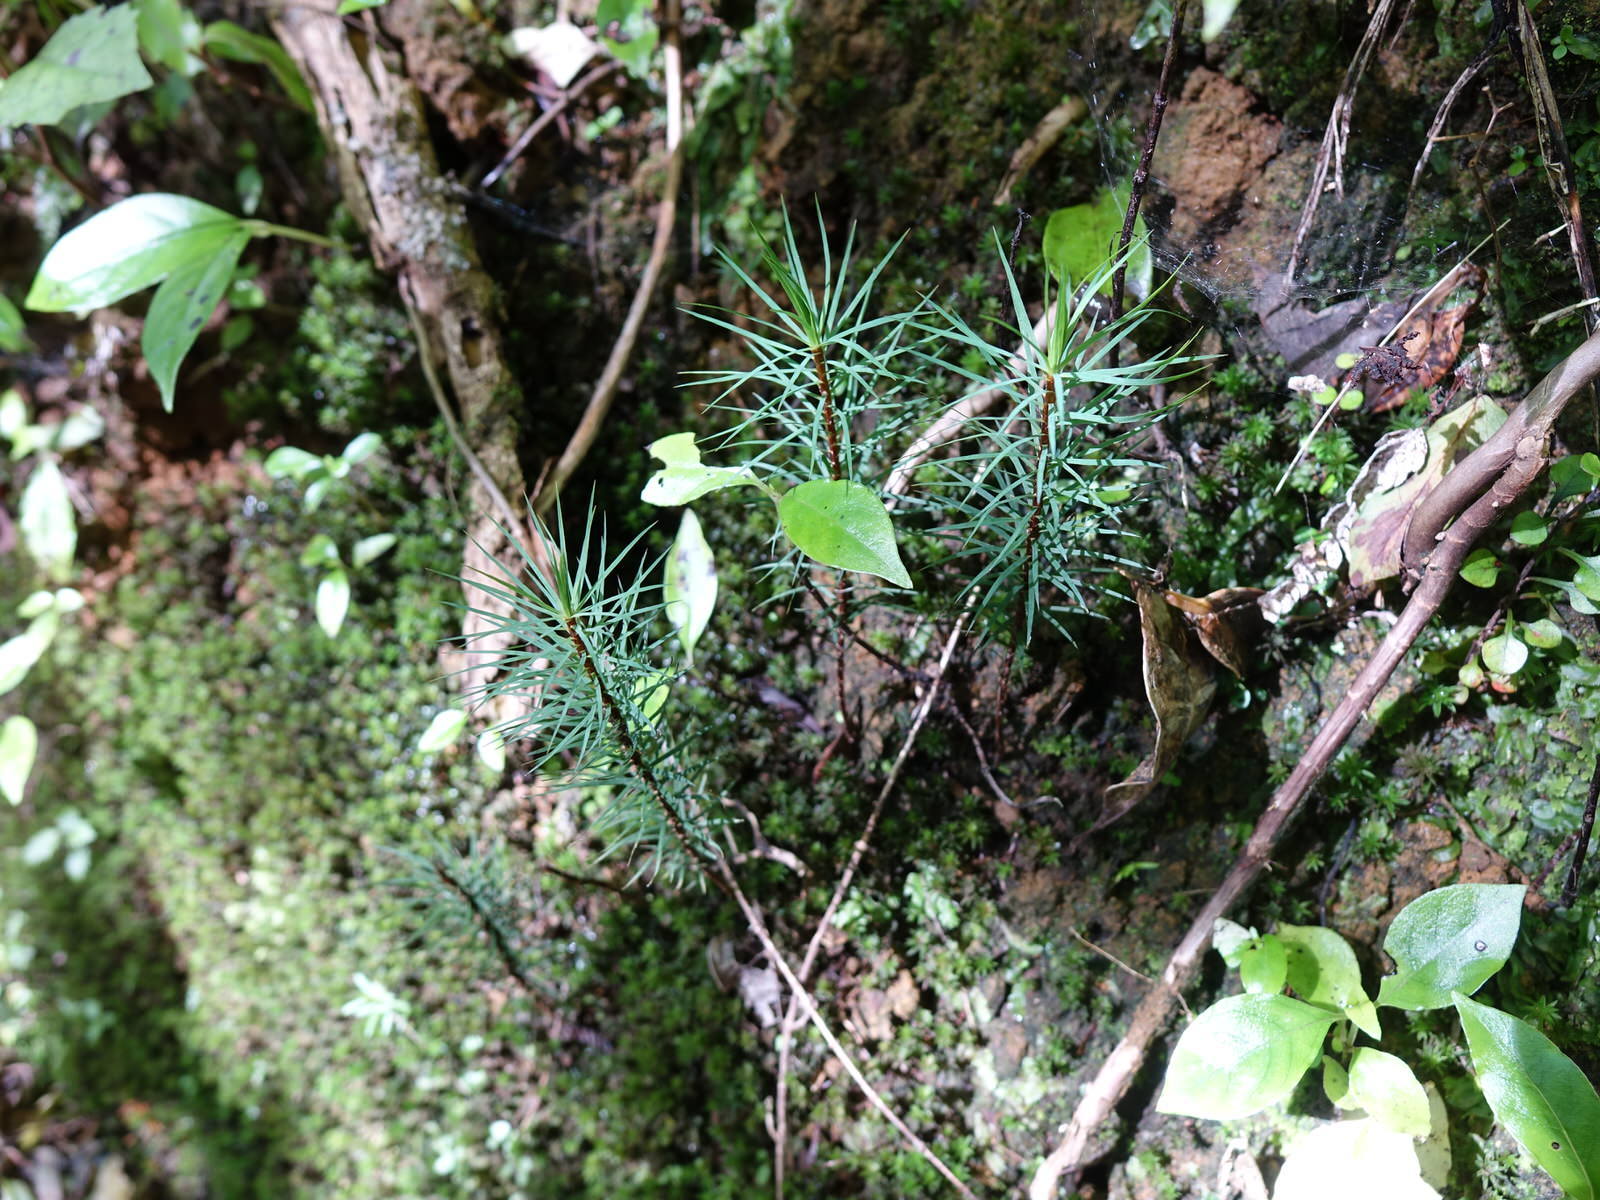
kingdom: Plantae
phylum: Bryophyta
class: Polytrichopsida
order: Polytrichales
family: Polytrichaceae
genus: Dawsonia
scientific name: Dawsonia superba
